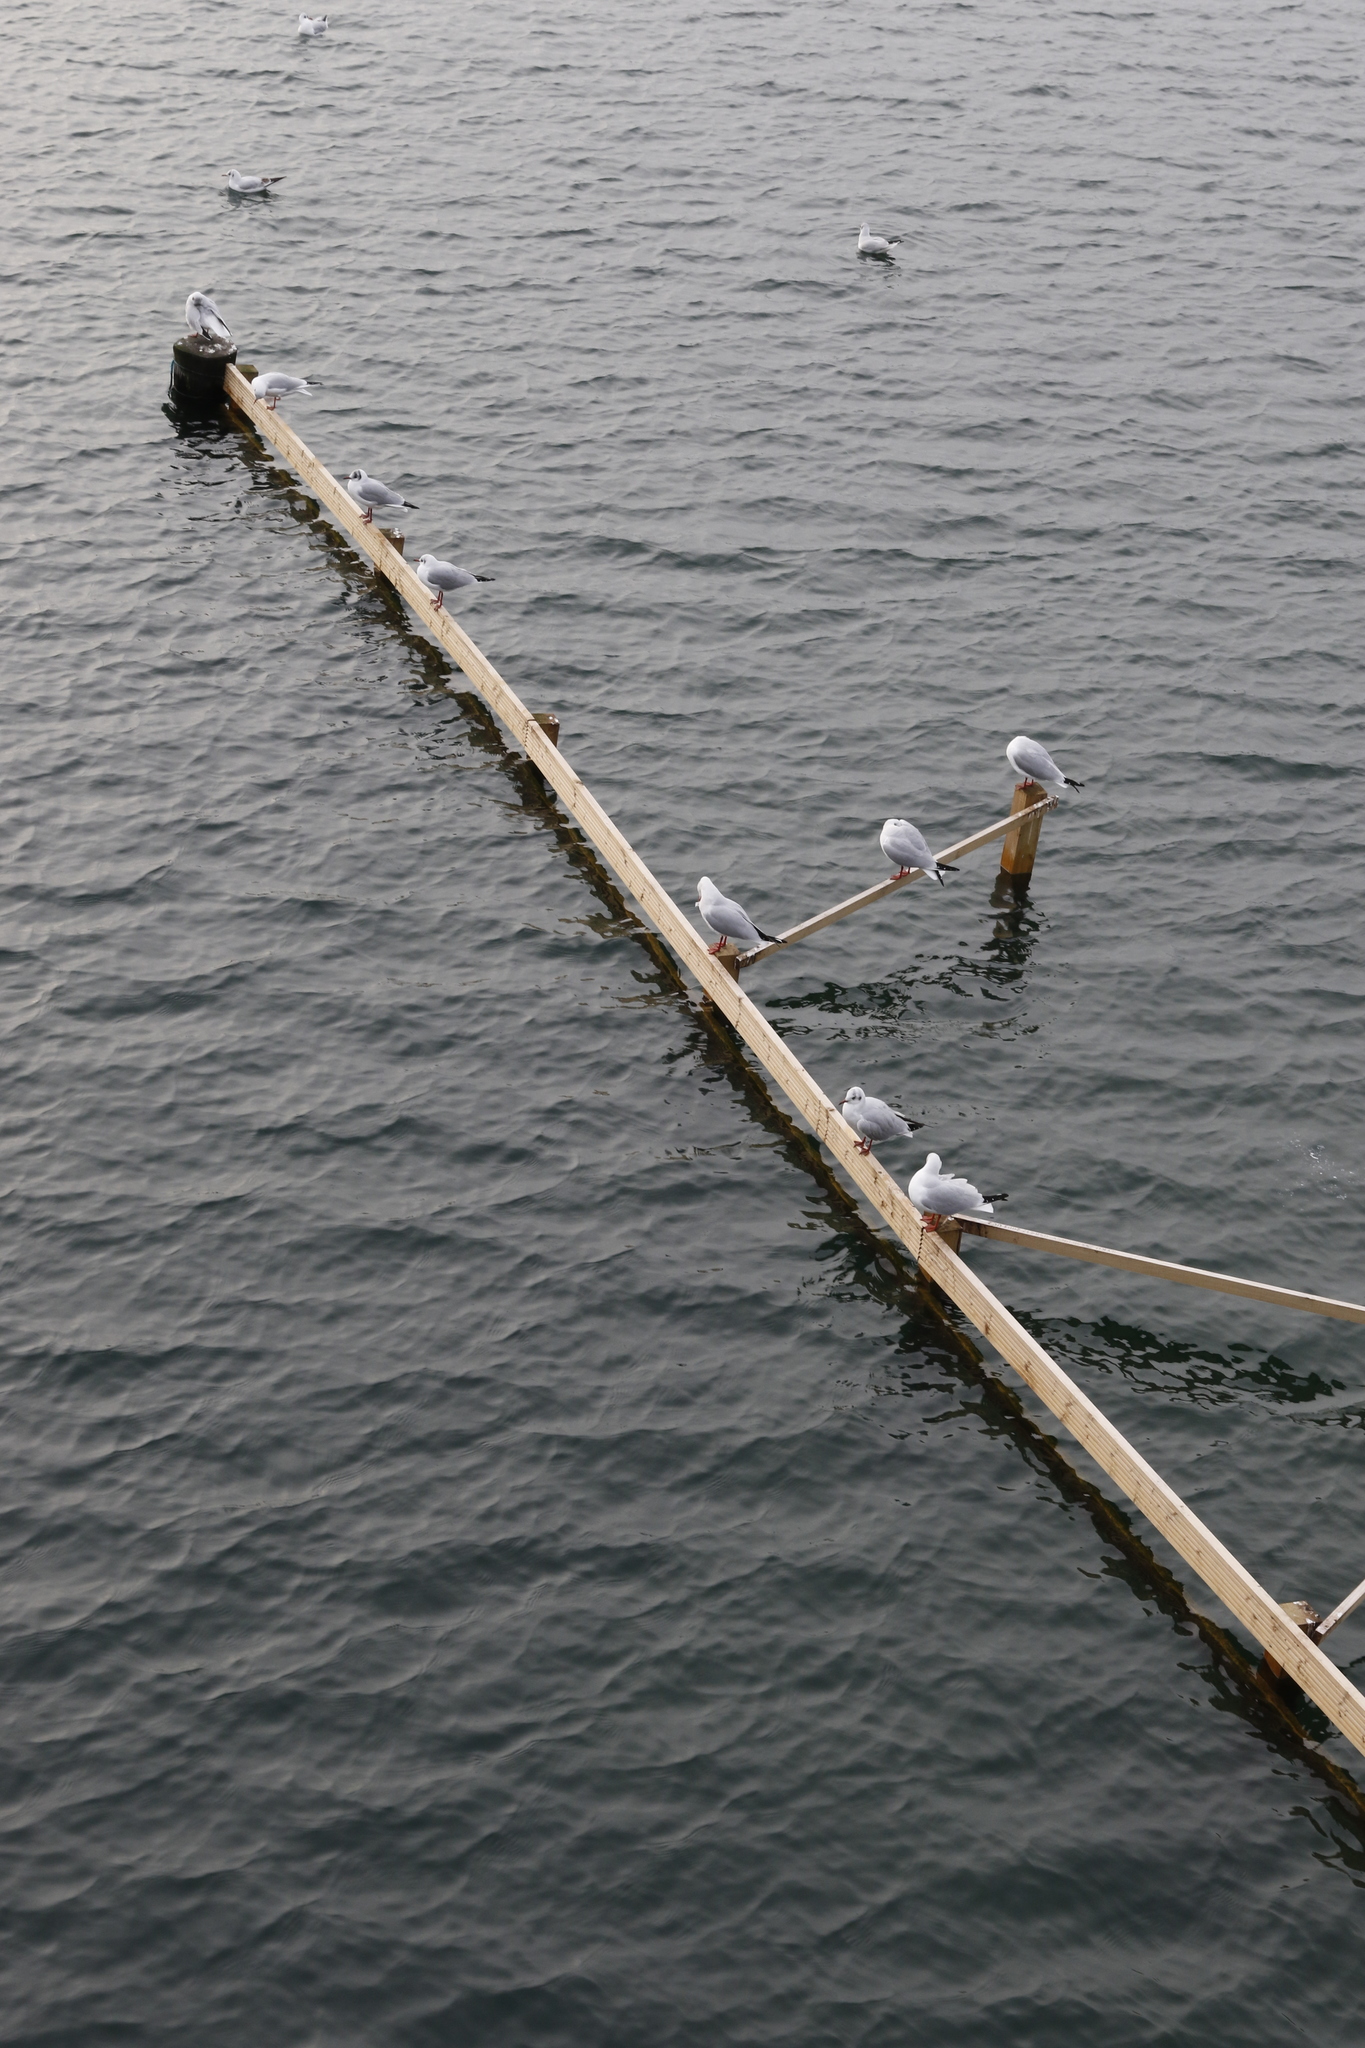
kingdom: Animalia
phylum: Chordata
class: Aves
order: Charadriiformes
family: Laridae
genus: Chroicocephalus
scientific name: Chroicocephalus ridibundus
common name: Black-headed gull
